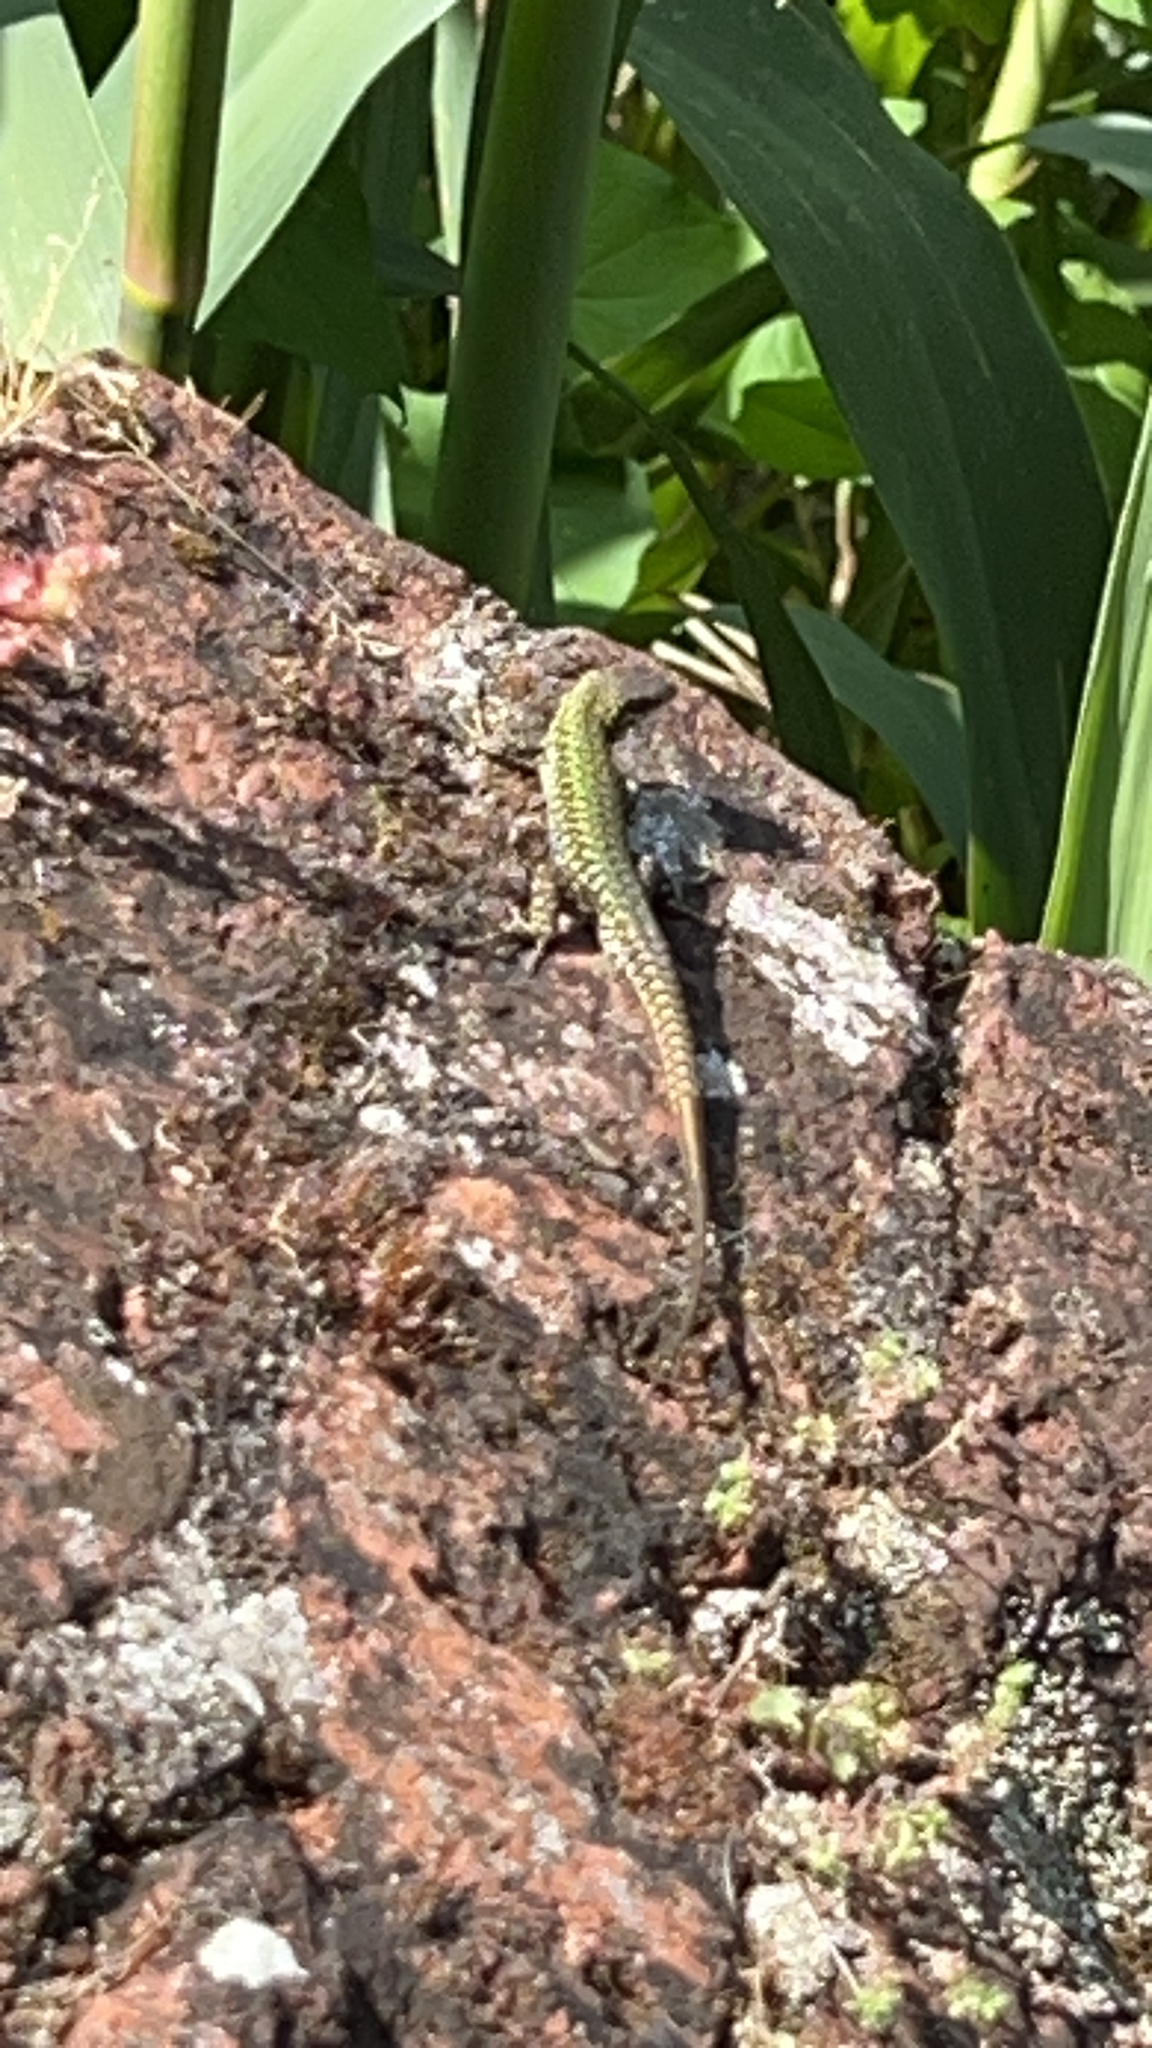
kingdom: Animalia
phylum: Chordata
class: Squamata
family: Lacertidae
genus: Podarcis
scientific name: Podarcis muralis
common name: Common wall lizard
